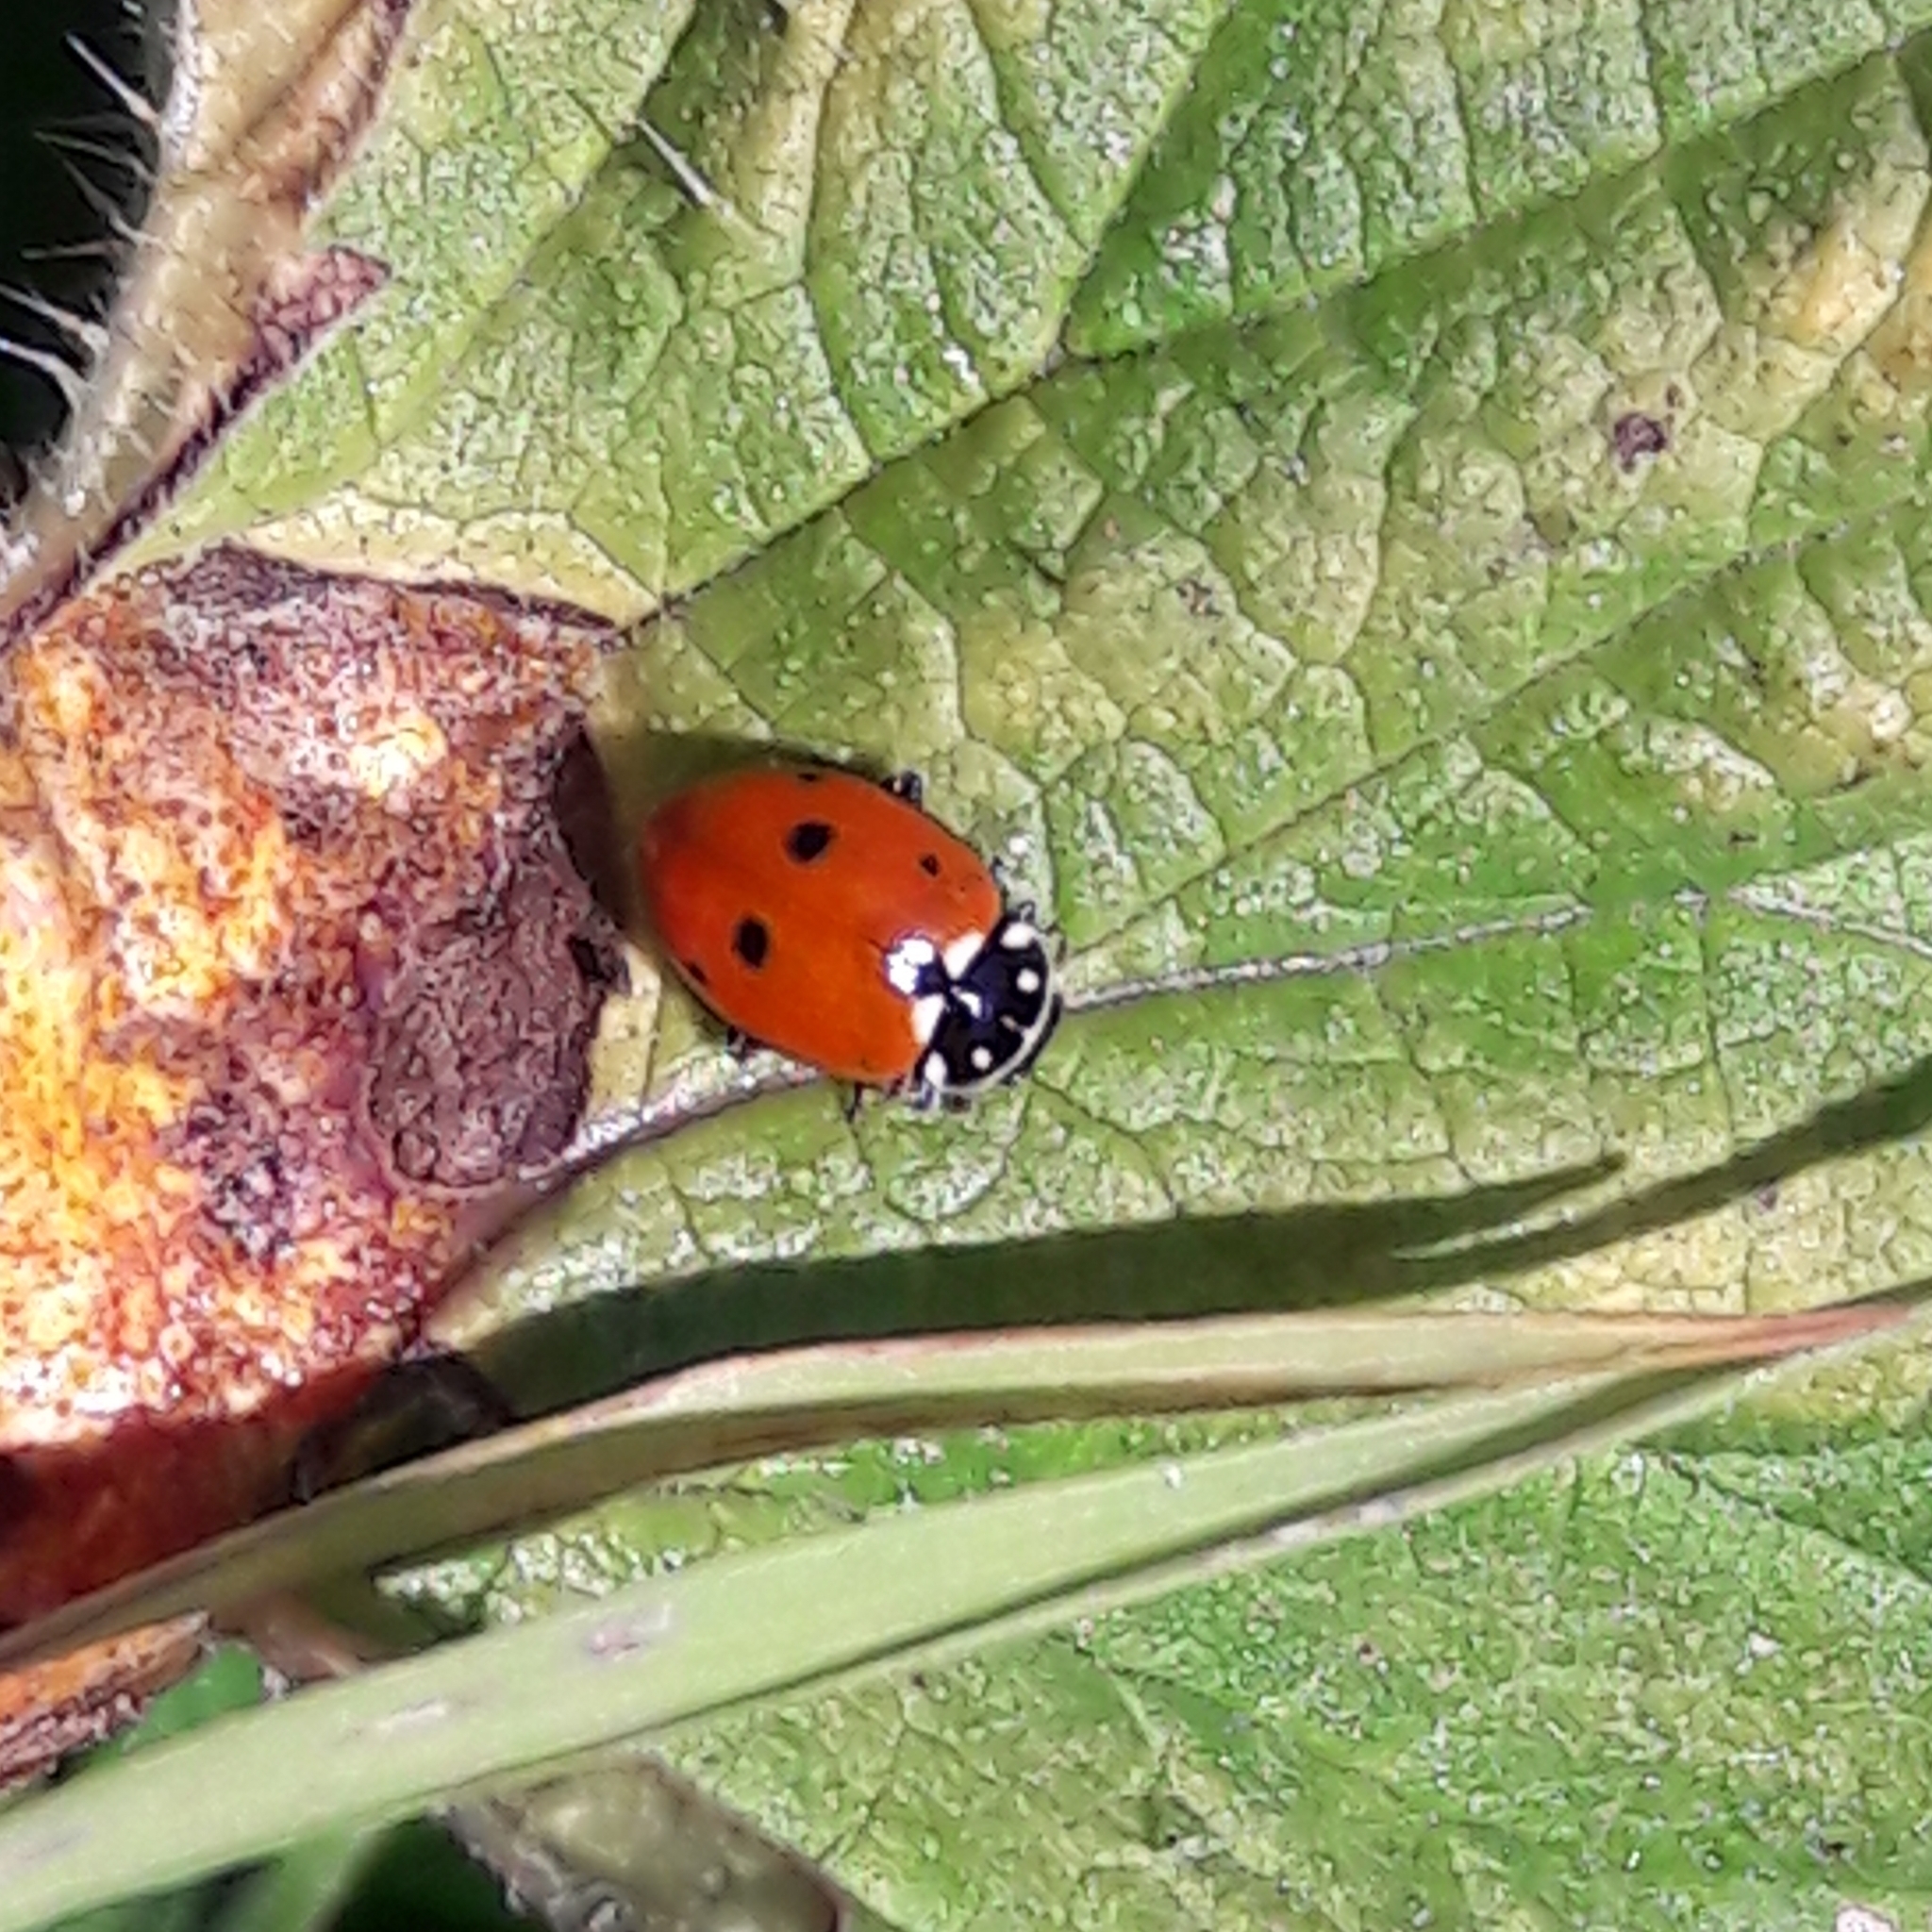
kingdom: Animalia
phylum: Arthropoda
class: Insecta
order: Coleoptera
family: Coccinellidae
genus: Hippodamia
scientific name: Hippodamia variegata
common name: Ladybird beetle
